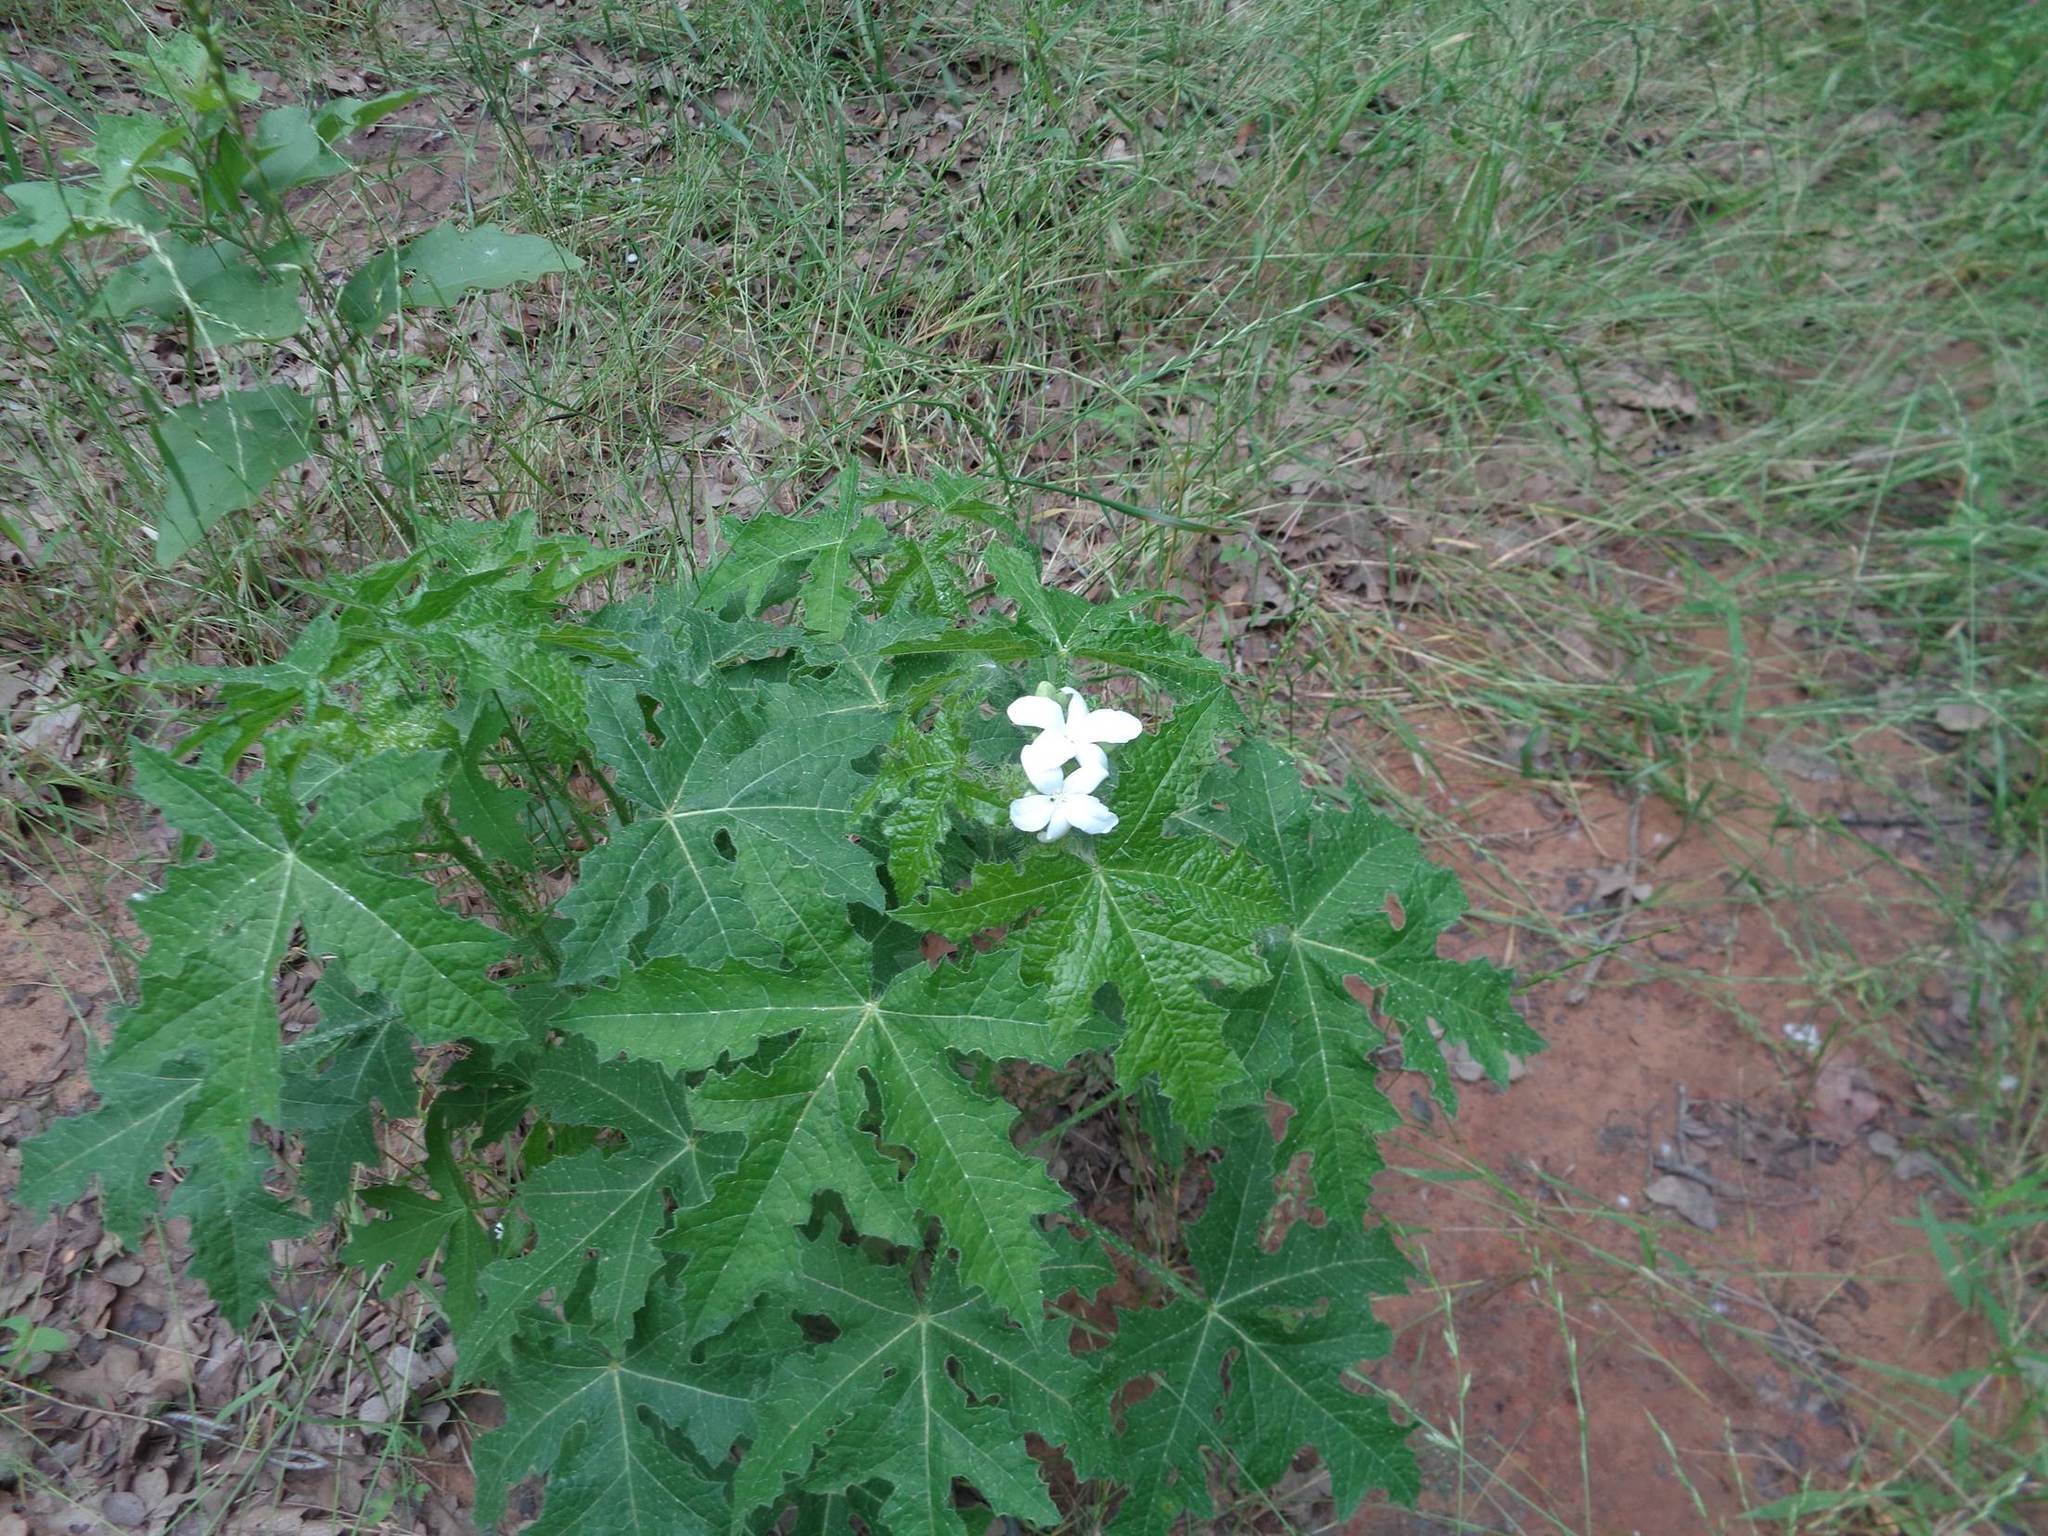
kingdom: Plantae
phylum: Tracheophyta
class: Magnoliopsida
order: Malpighiales
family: Euphorbiaceae
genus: Cnidoscolus
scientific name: Cnidoscolus texanus
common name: Texas bull-nettle
